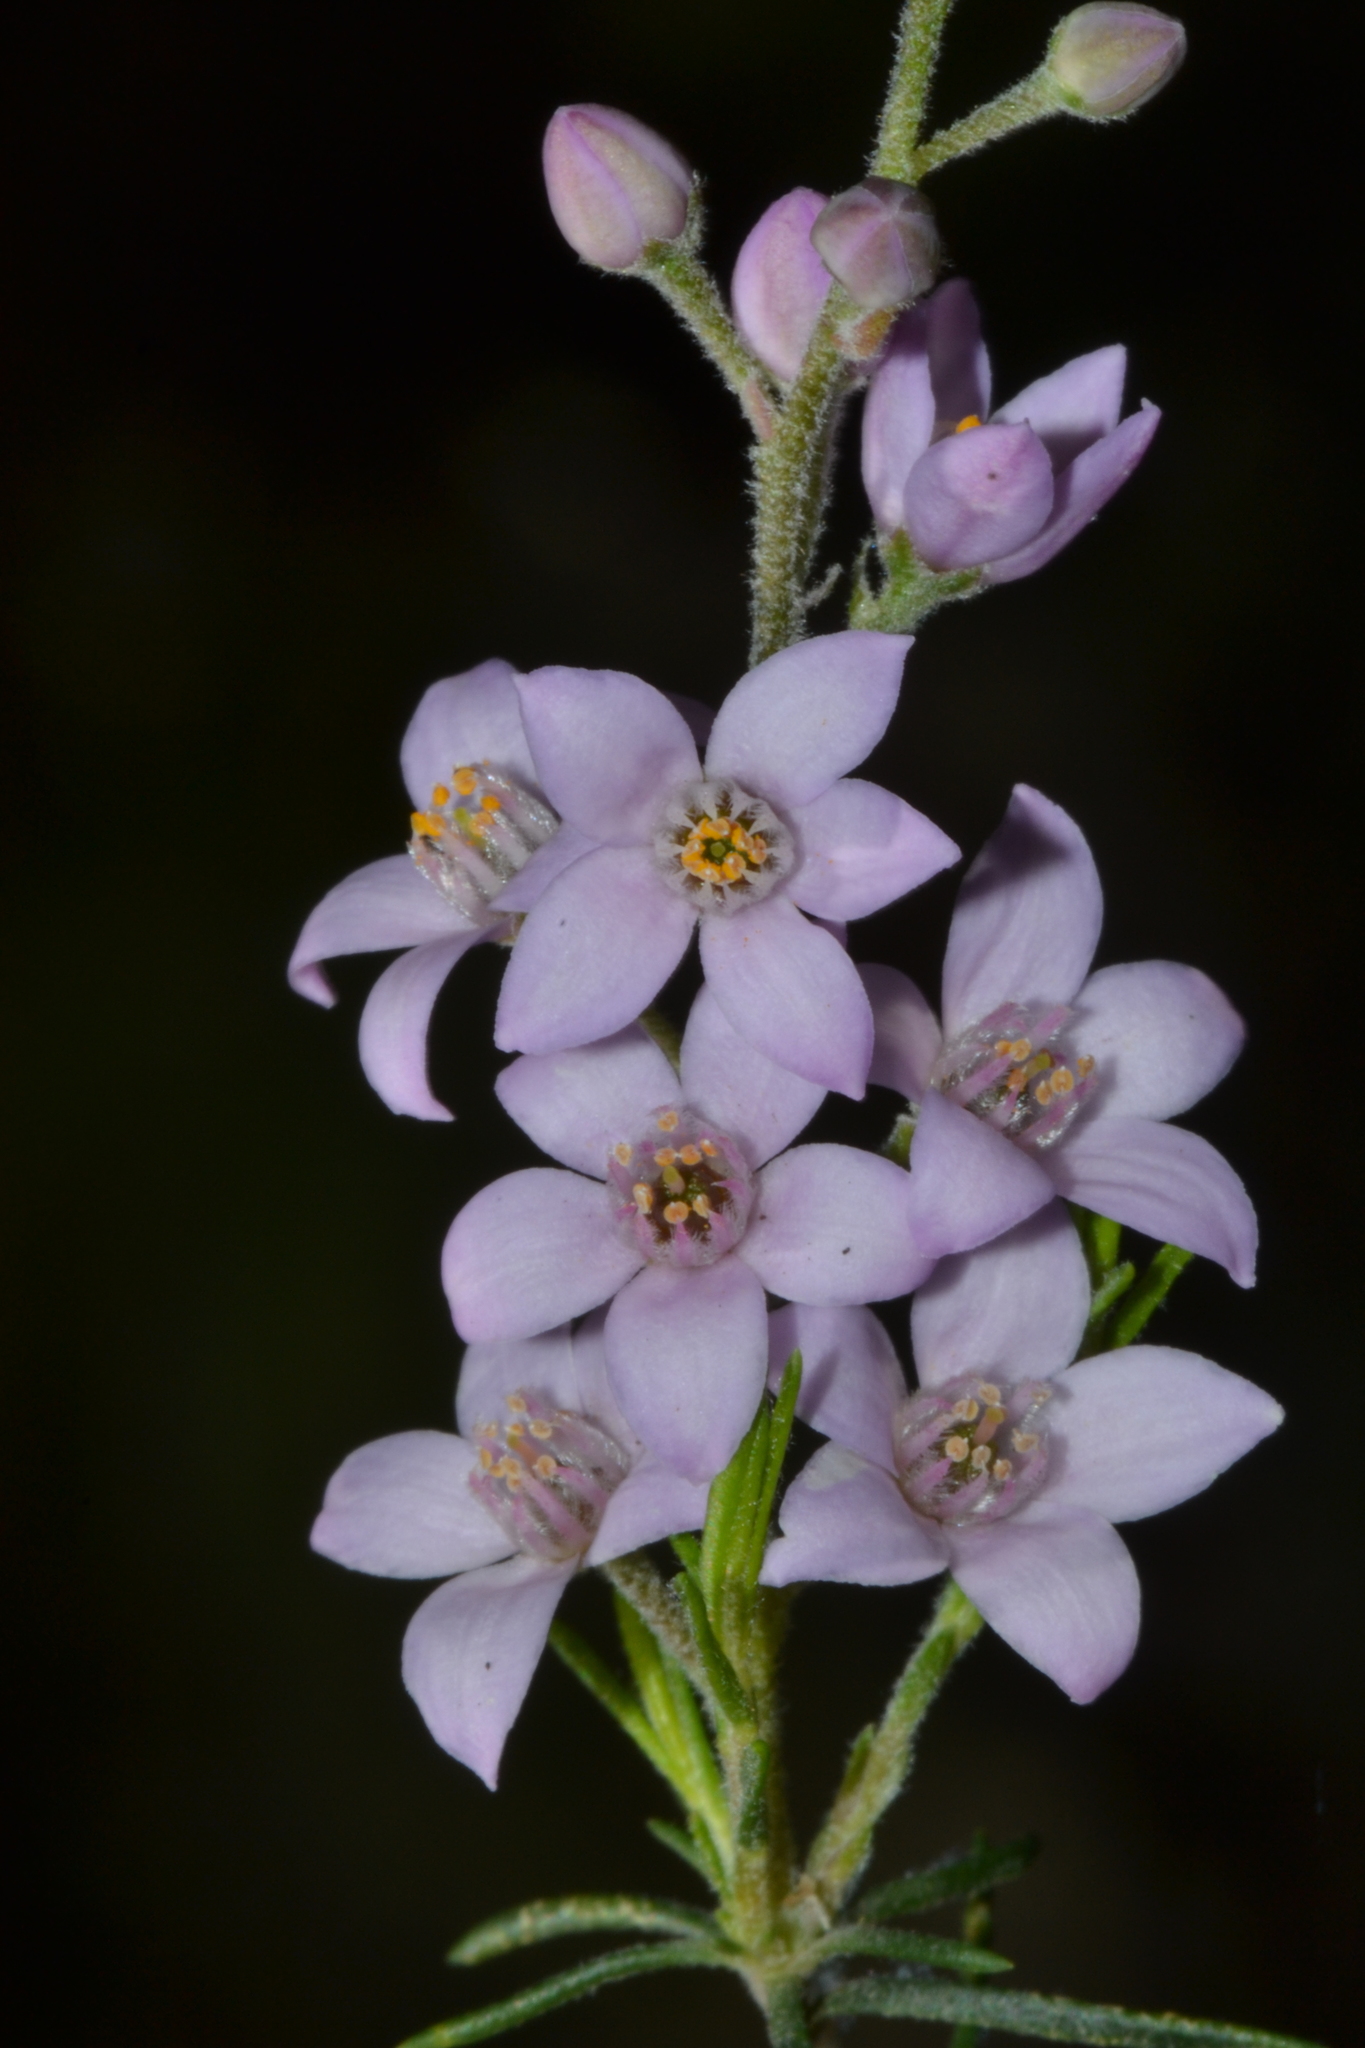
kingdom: Plantae
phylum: Tracheophyta
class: Magnoliopsida
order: Sapindales
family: Rutaceae
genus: Philotheca
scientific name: Philotheca spicata
